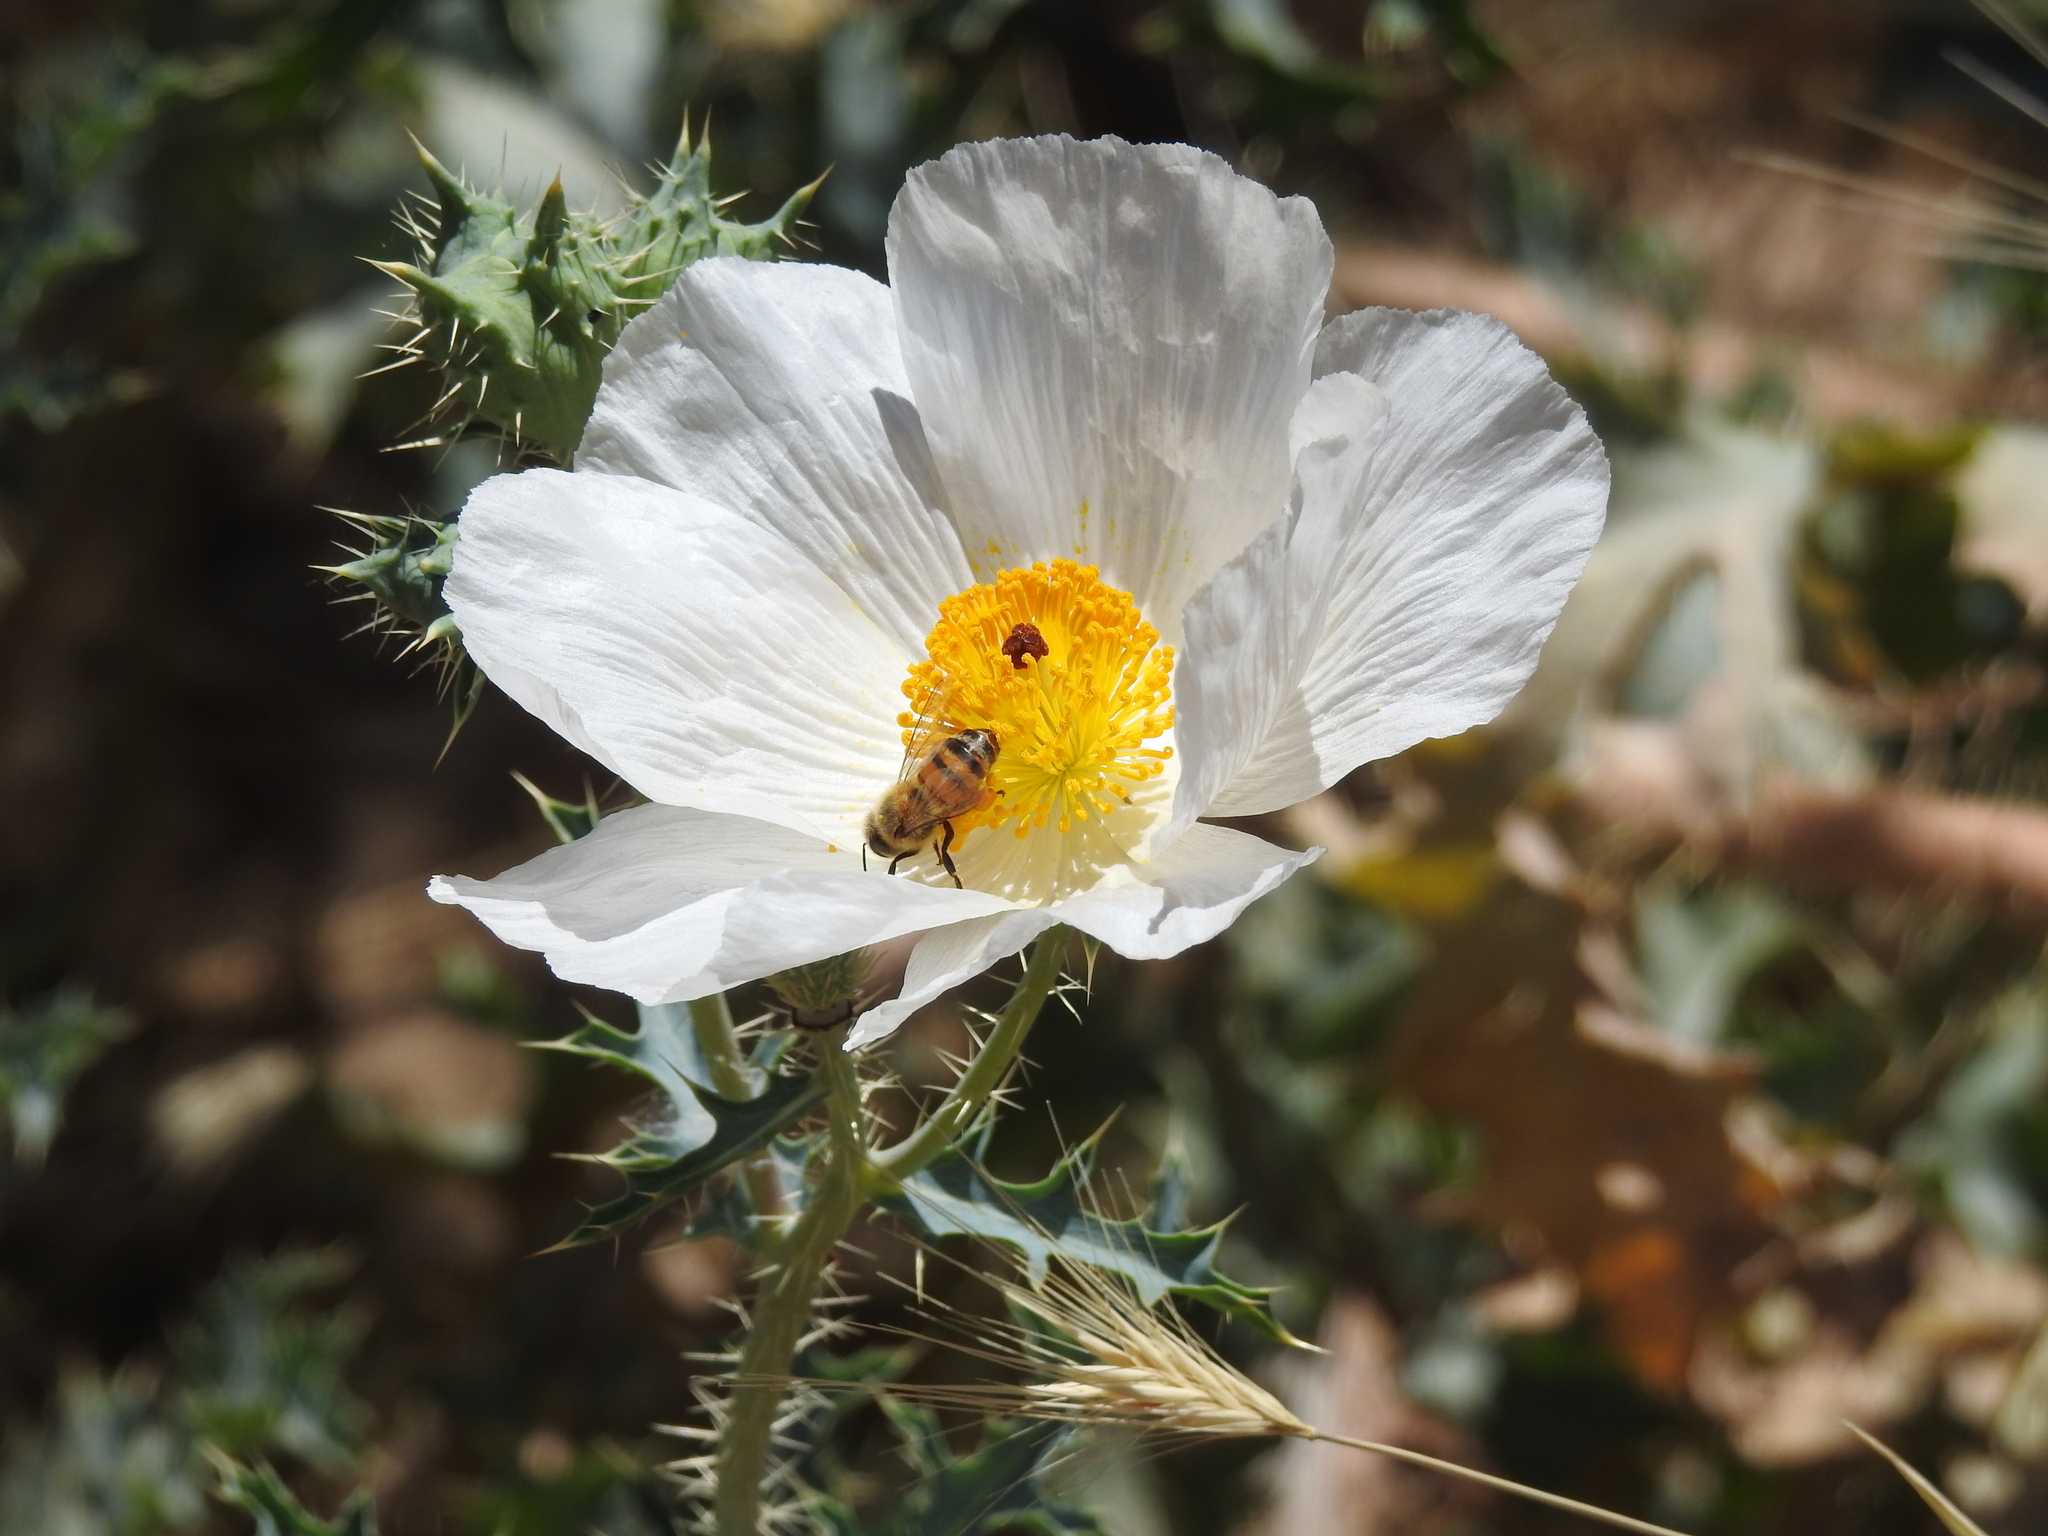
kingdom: Animalia
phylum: Arthropoda
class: Insecta
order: Hymenoptera
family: Apidae
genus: Apis
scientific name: Apis mellifera
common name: Honey bee
